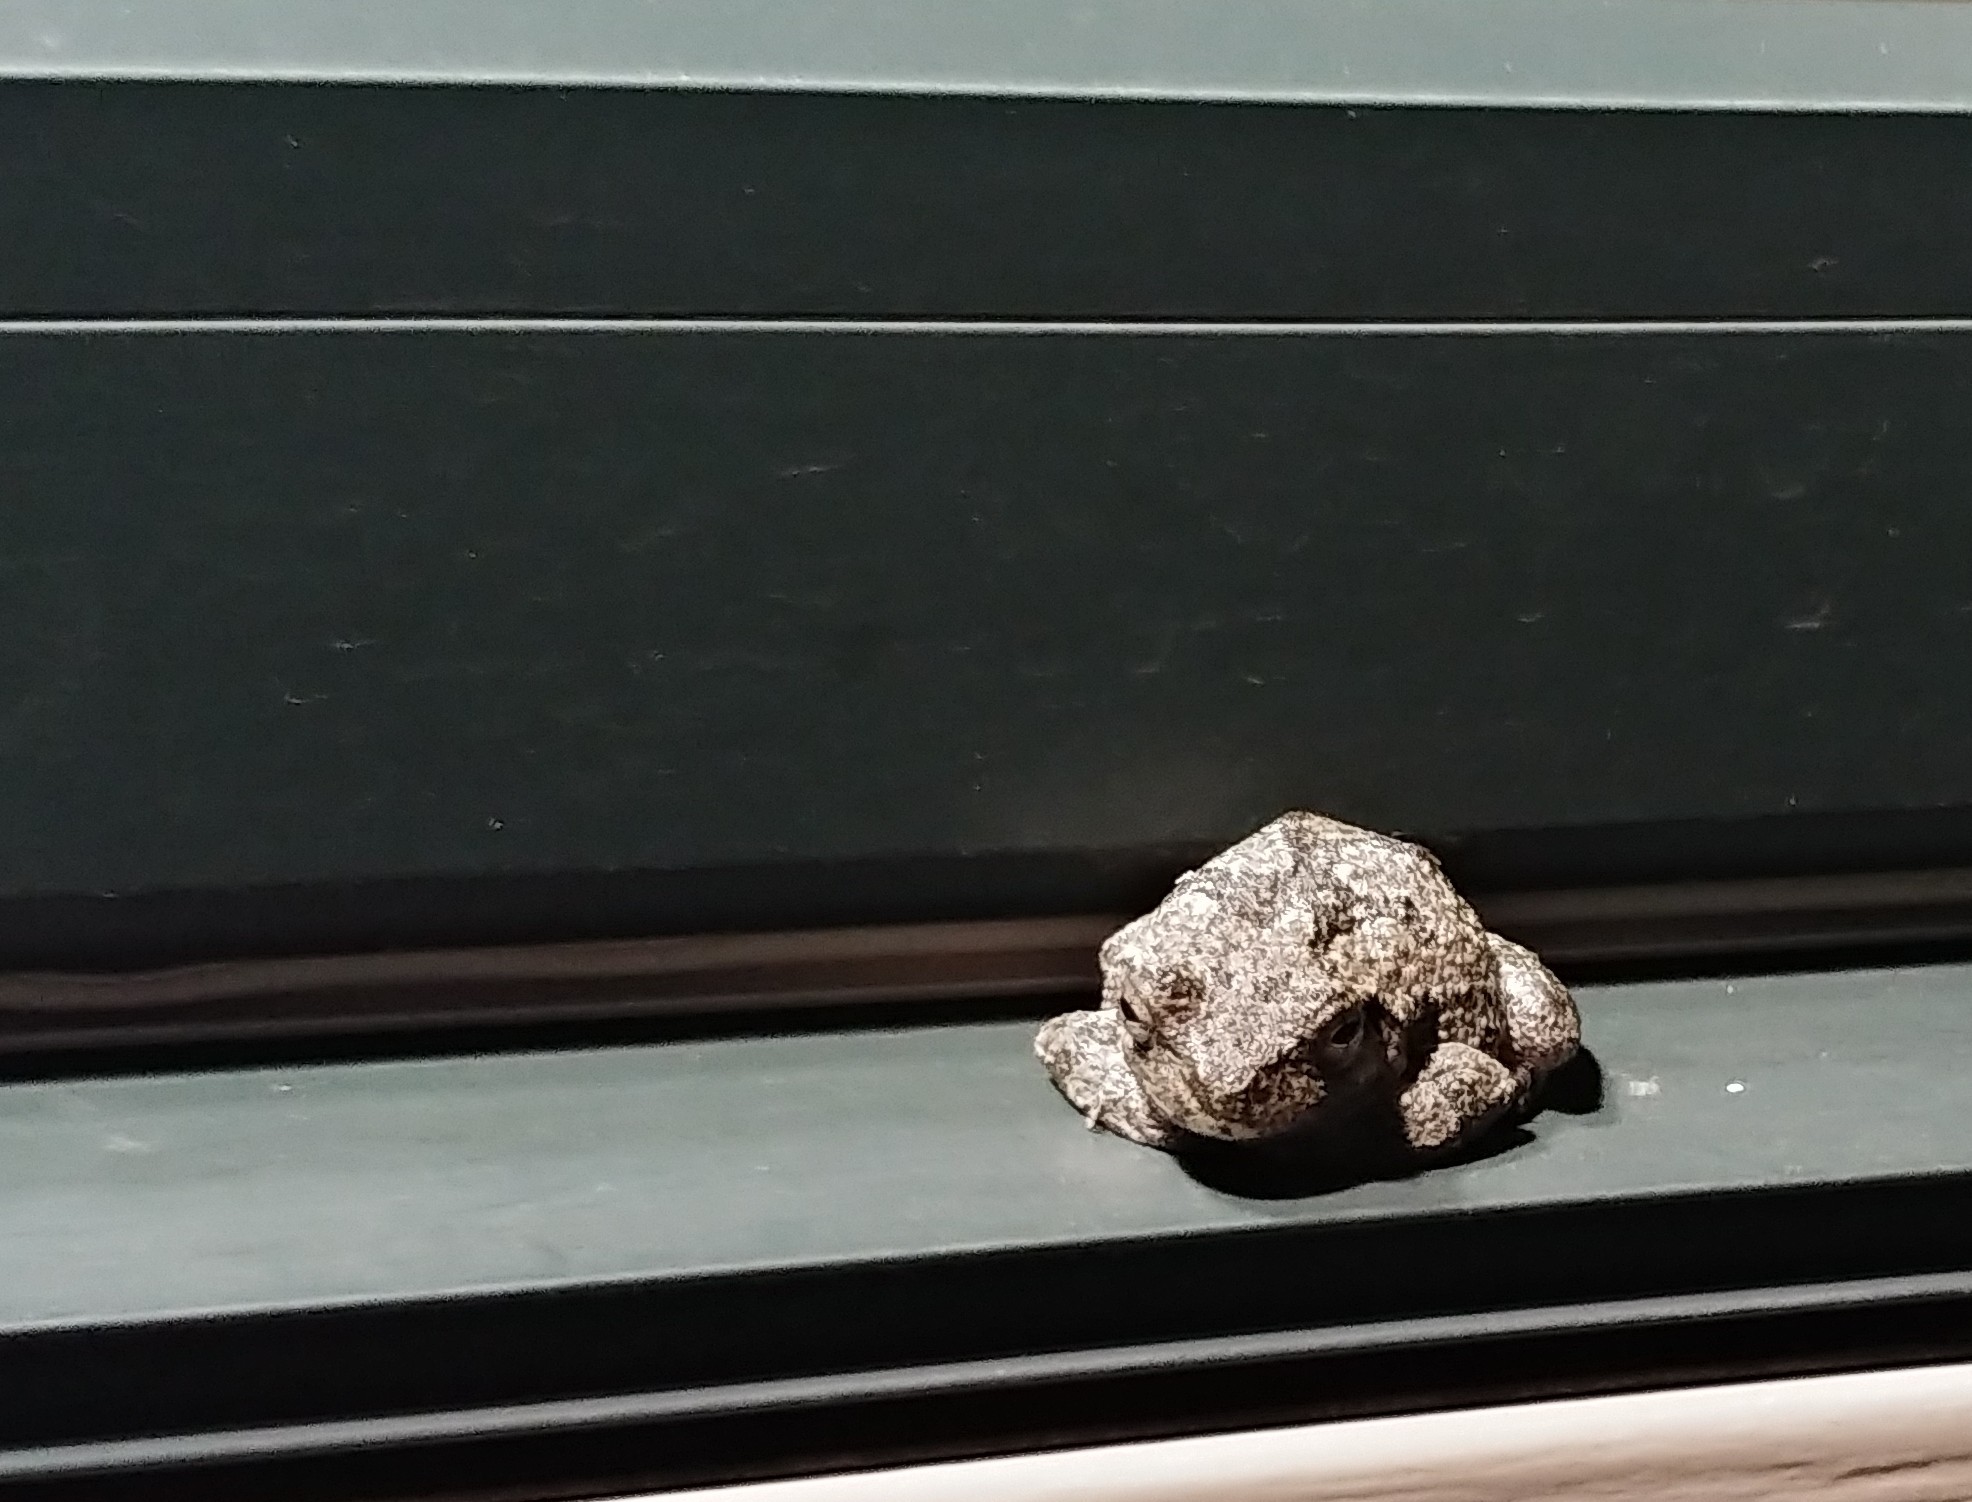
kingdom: Animalia
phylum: Chordata
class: Amphibia
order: Anura
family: Hylidae
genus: Hyla
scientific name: Hyla
